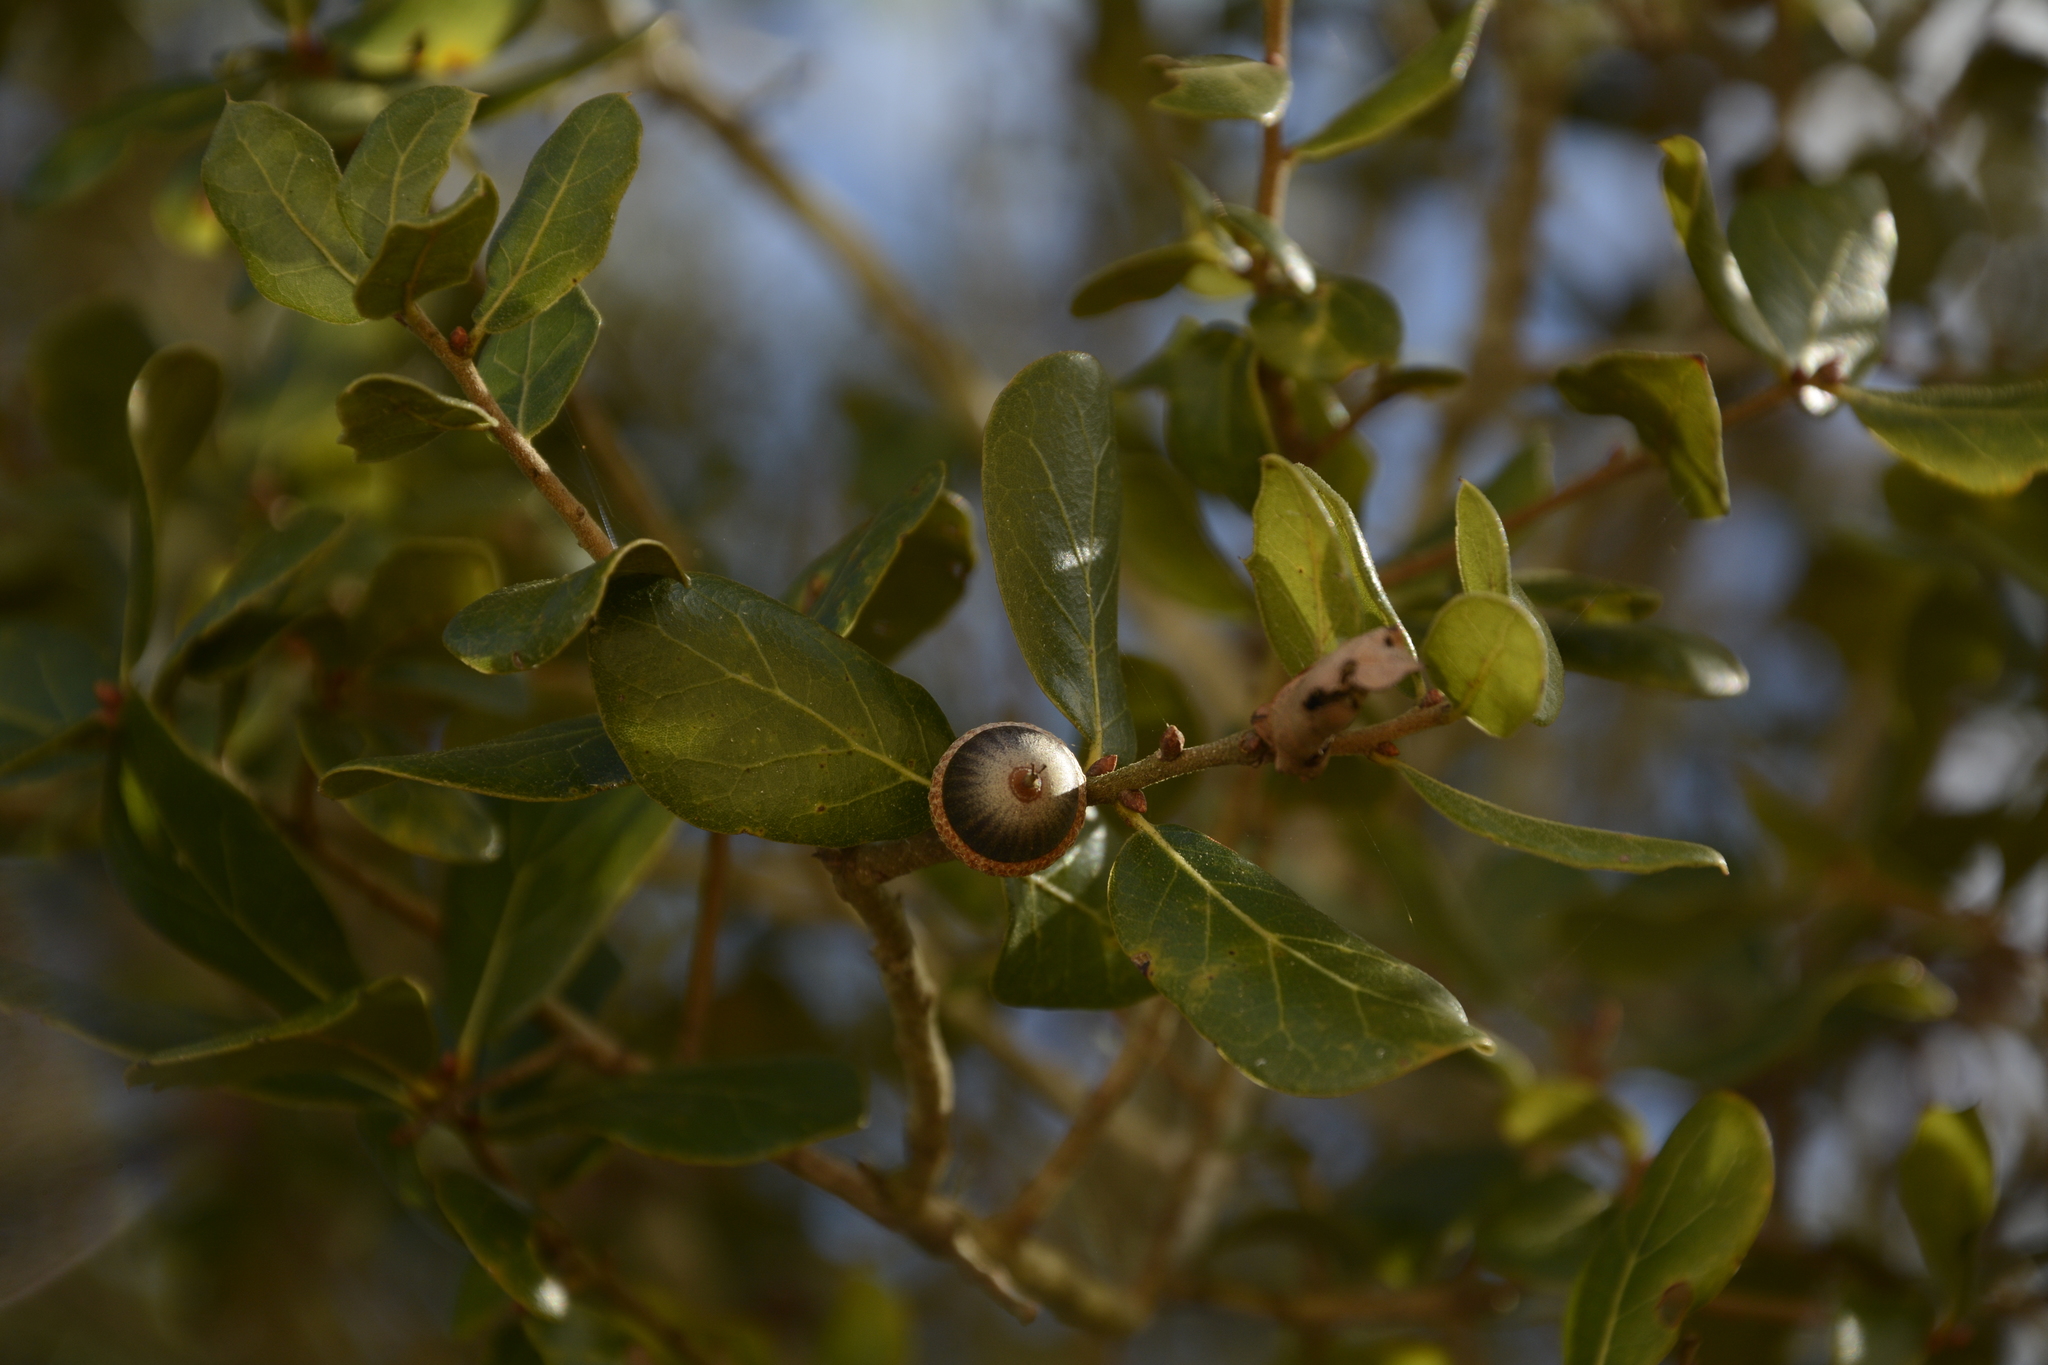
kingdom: Plantae
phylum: Tracheophyta
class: Magnoliopsida
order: Fagales
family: Fagaceae
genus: Quercus
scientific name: Quercus myrtifolia
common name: Myrtle oak
